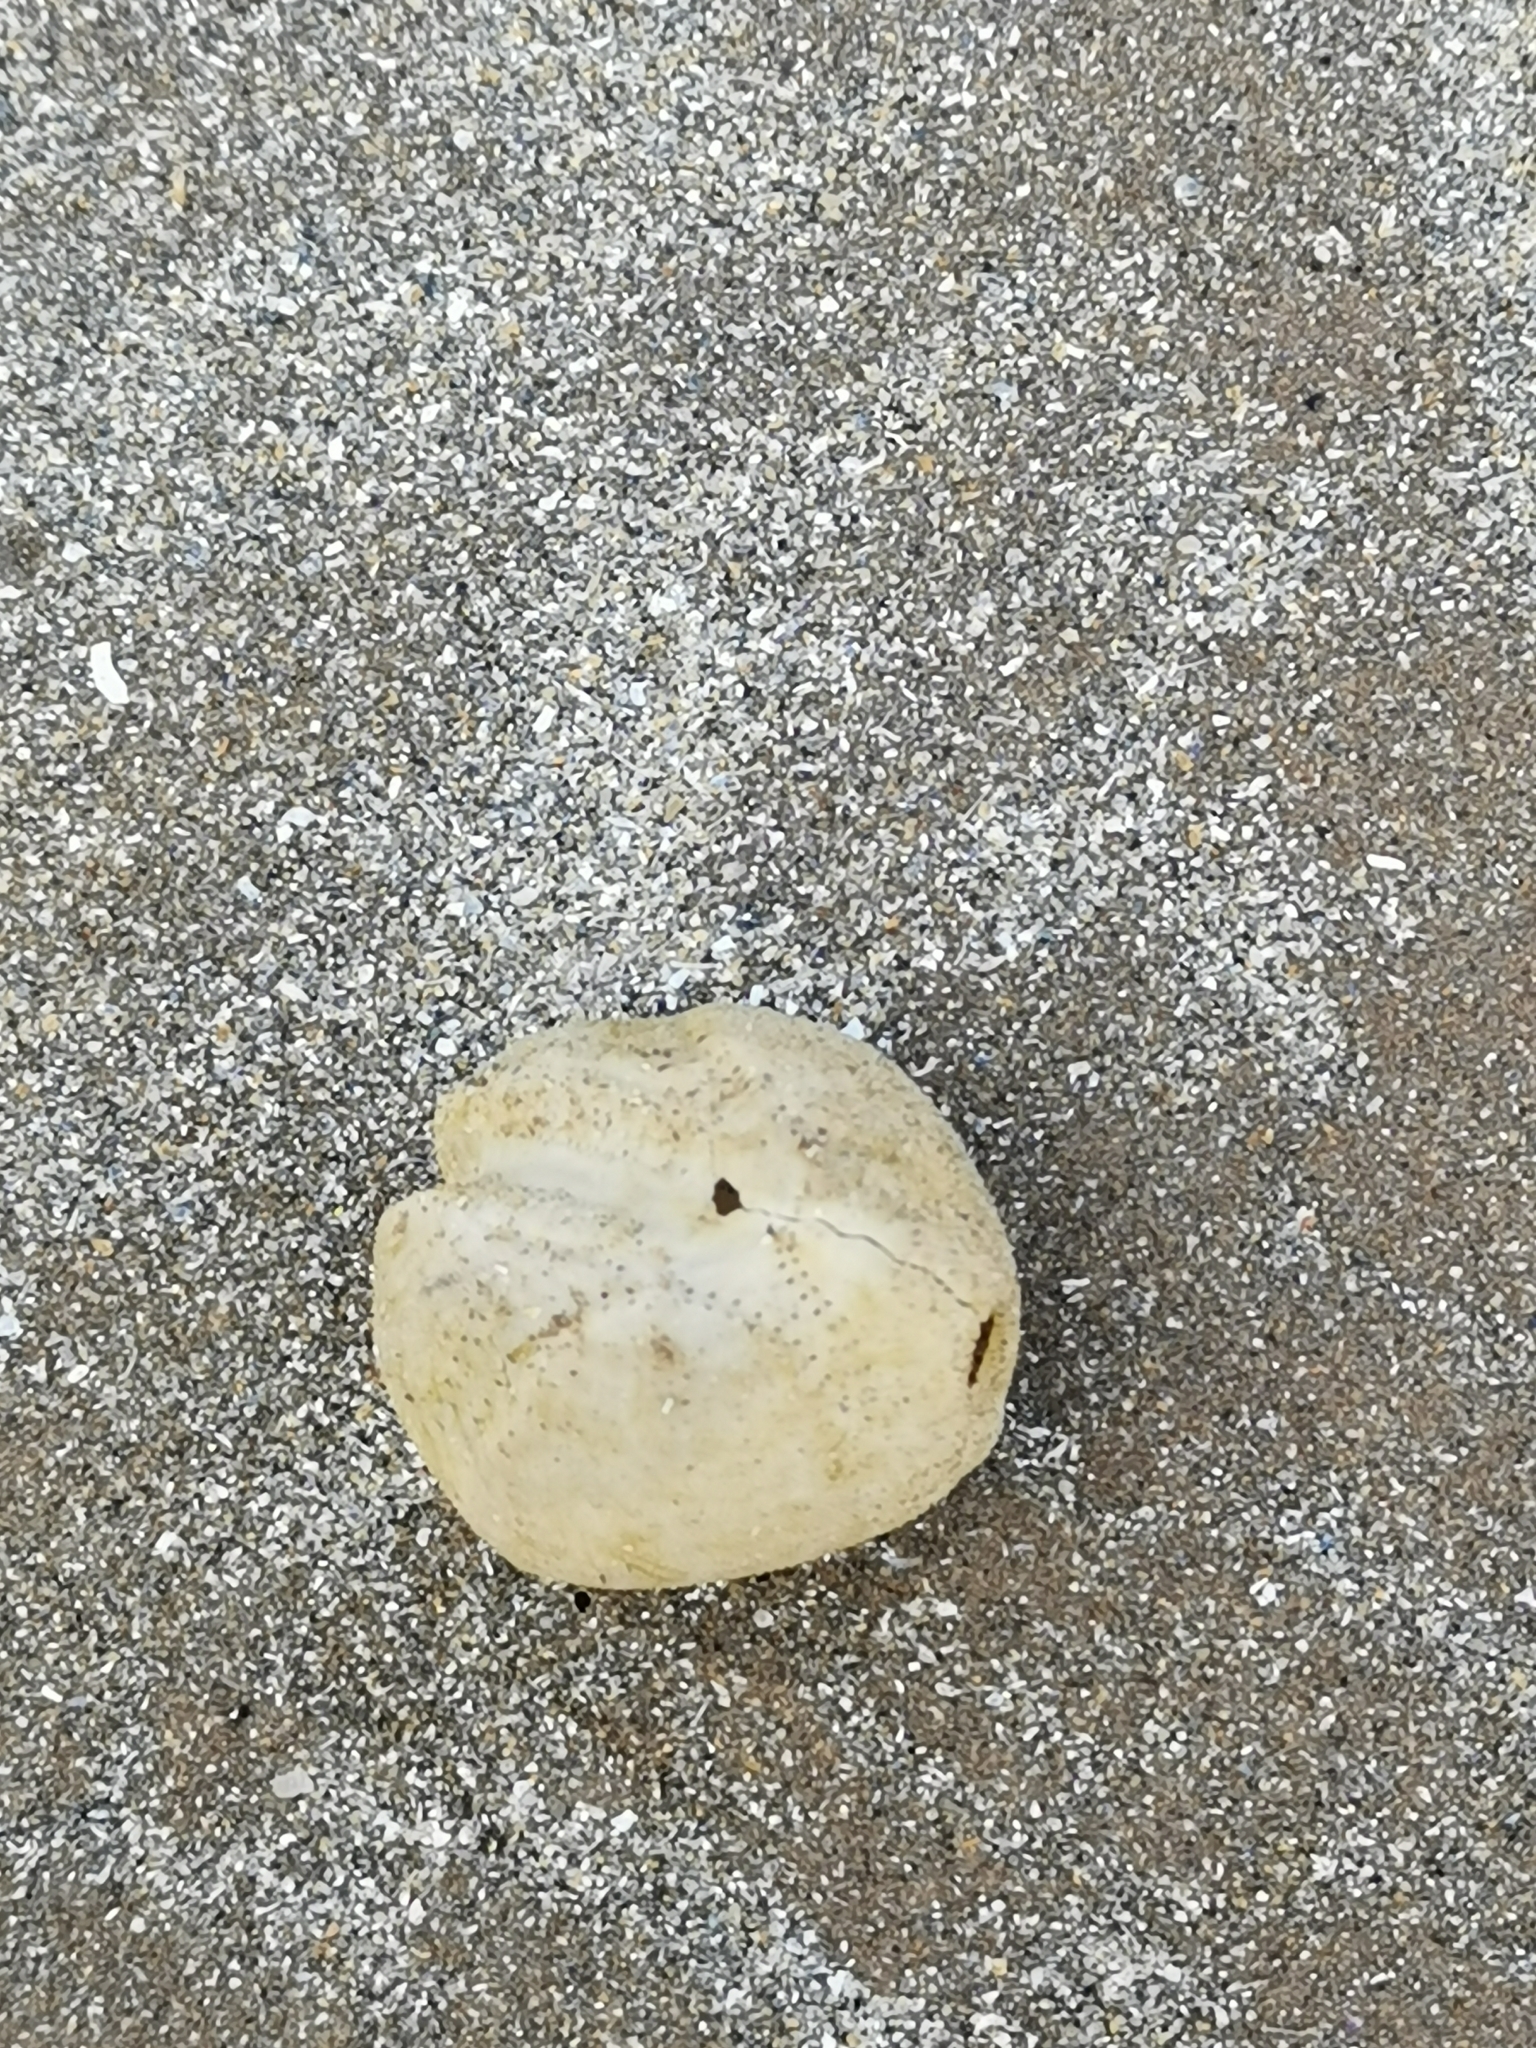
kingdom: Animalia
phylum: Echinodermata
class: Echinoidea
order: Spatangoida
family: Loveniidae
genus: Echinocardium
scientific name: Echinocardium cordatum
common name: Heart-urchin
